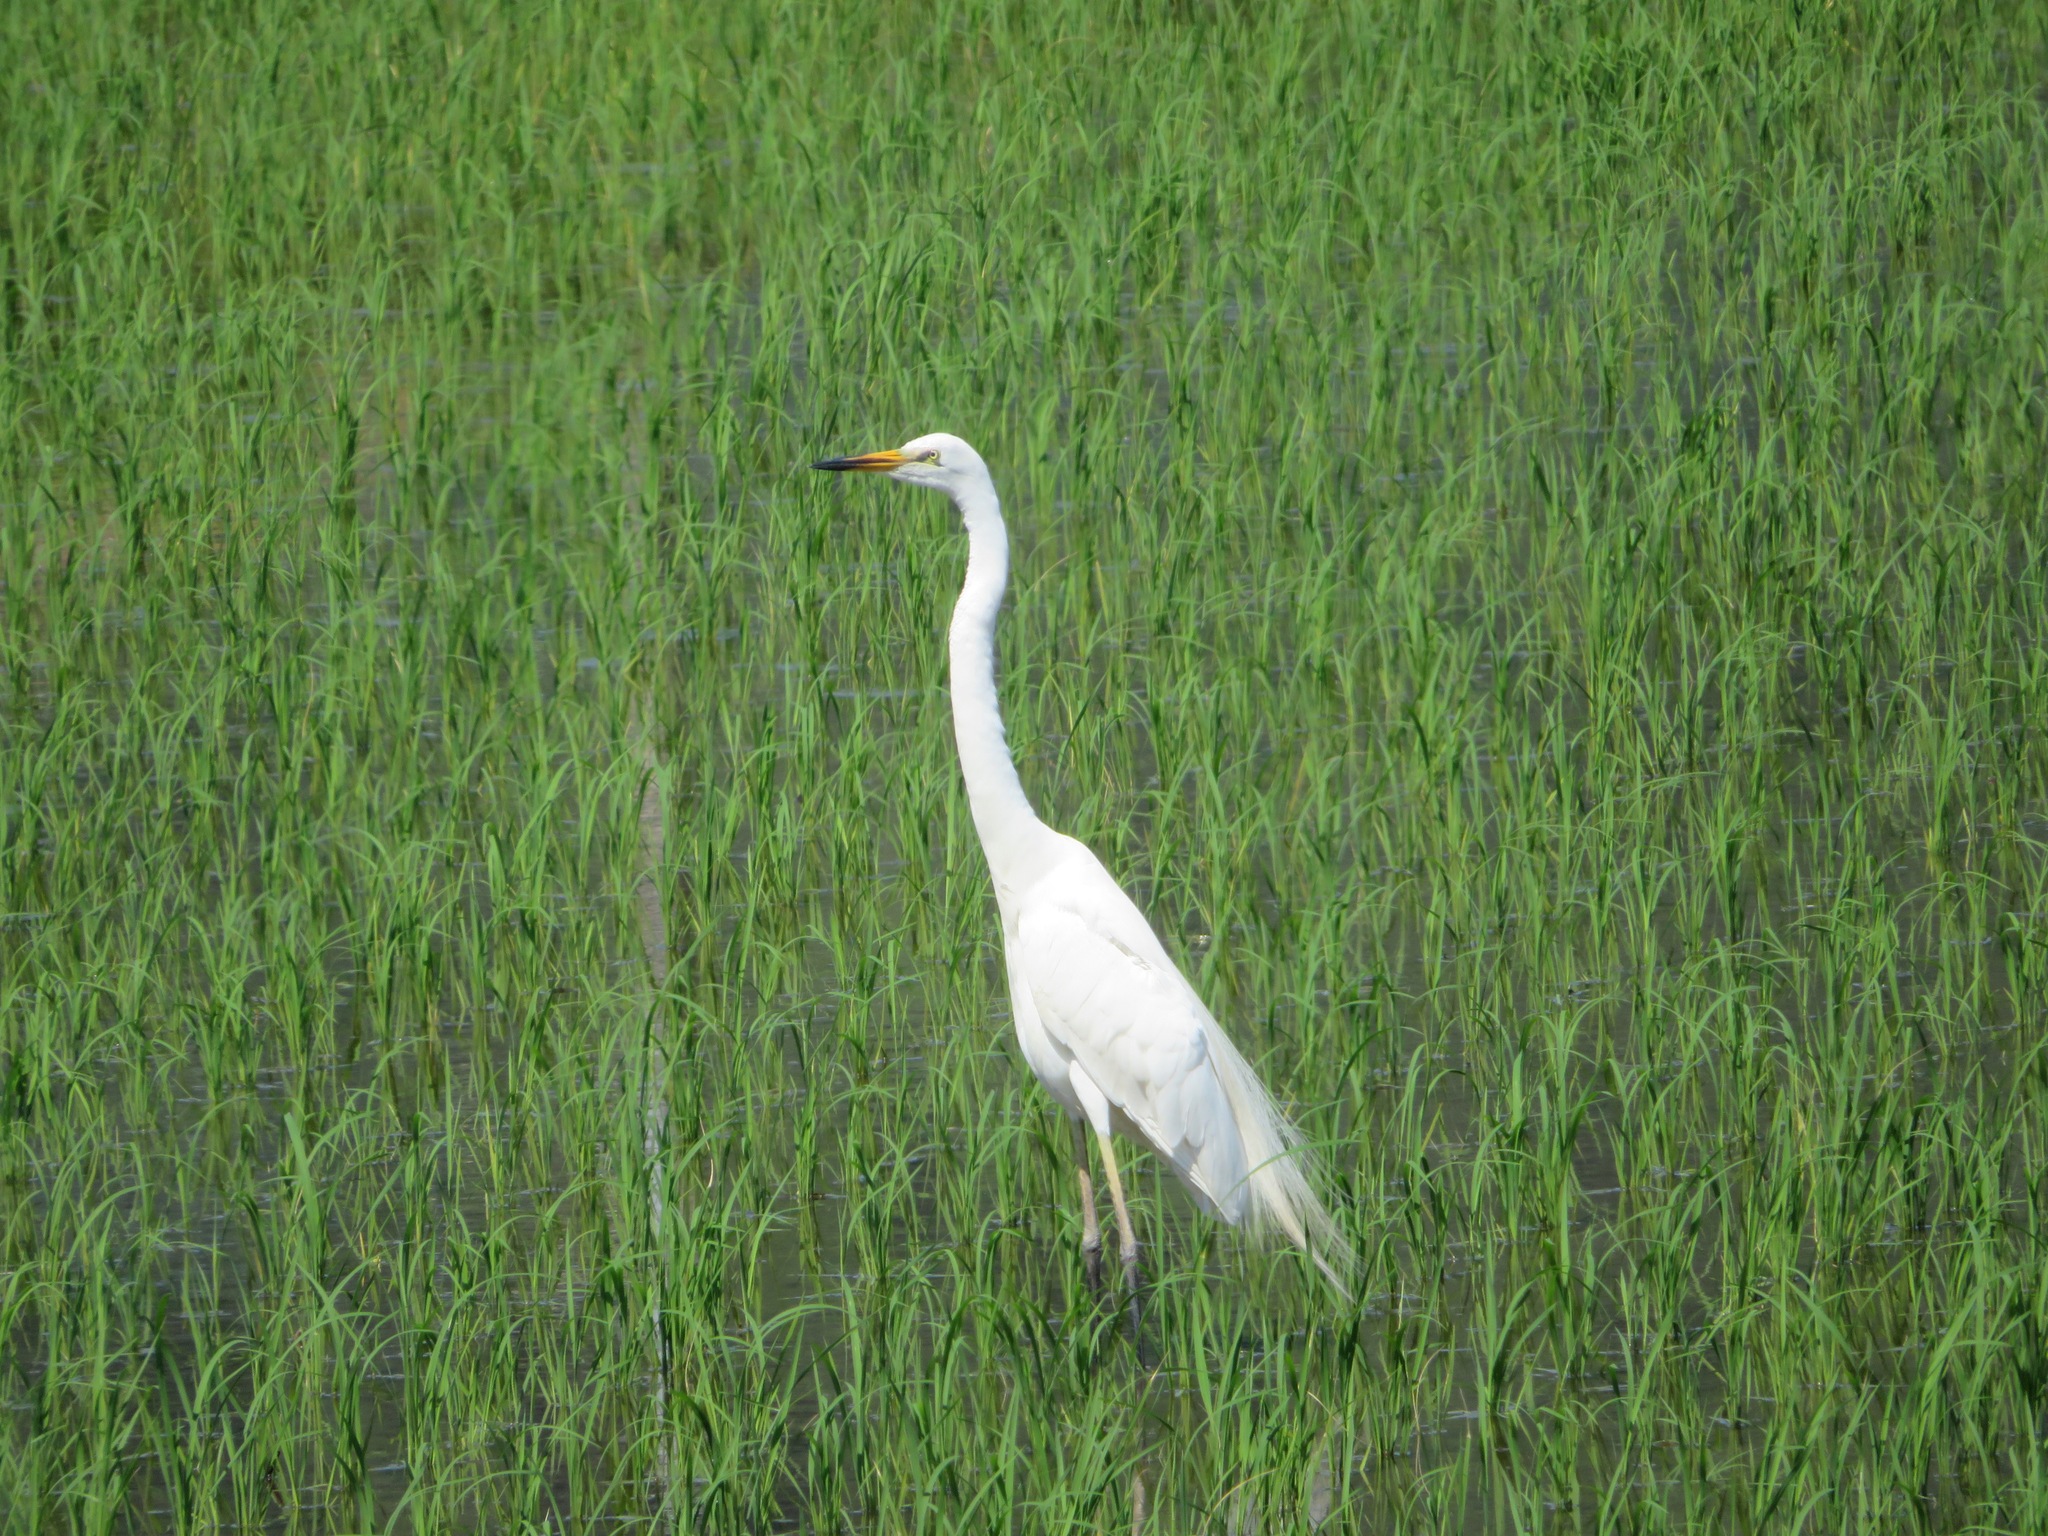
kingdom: Animalia
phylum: Chordata
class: Aves
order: Pelecaniformes
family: Ardeidae
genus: Ardea
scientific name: Ardea alba
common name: Great egret
